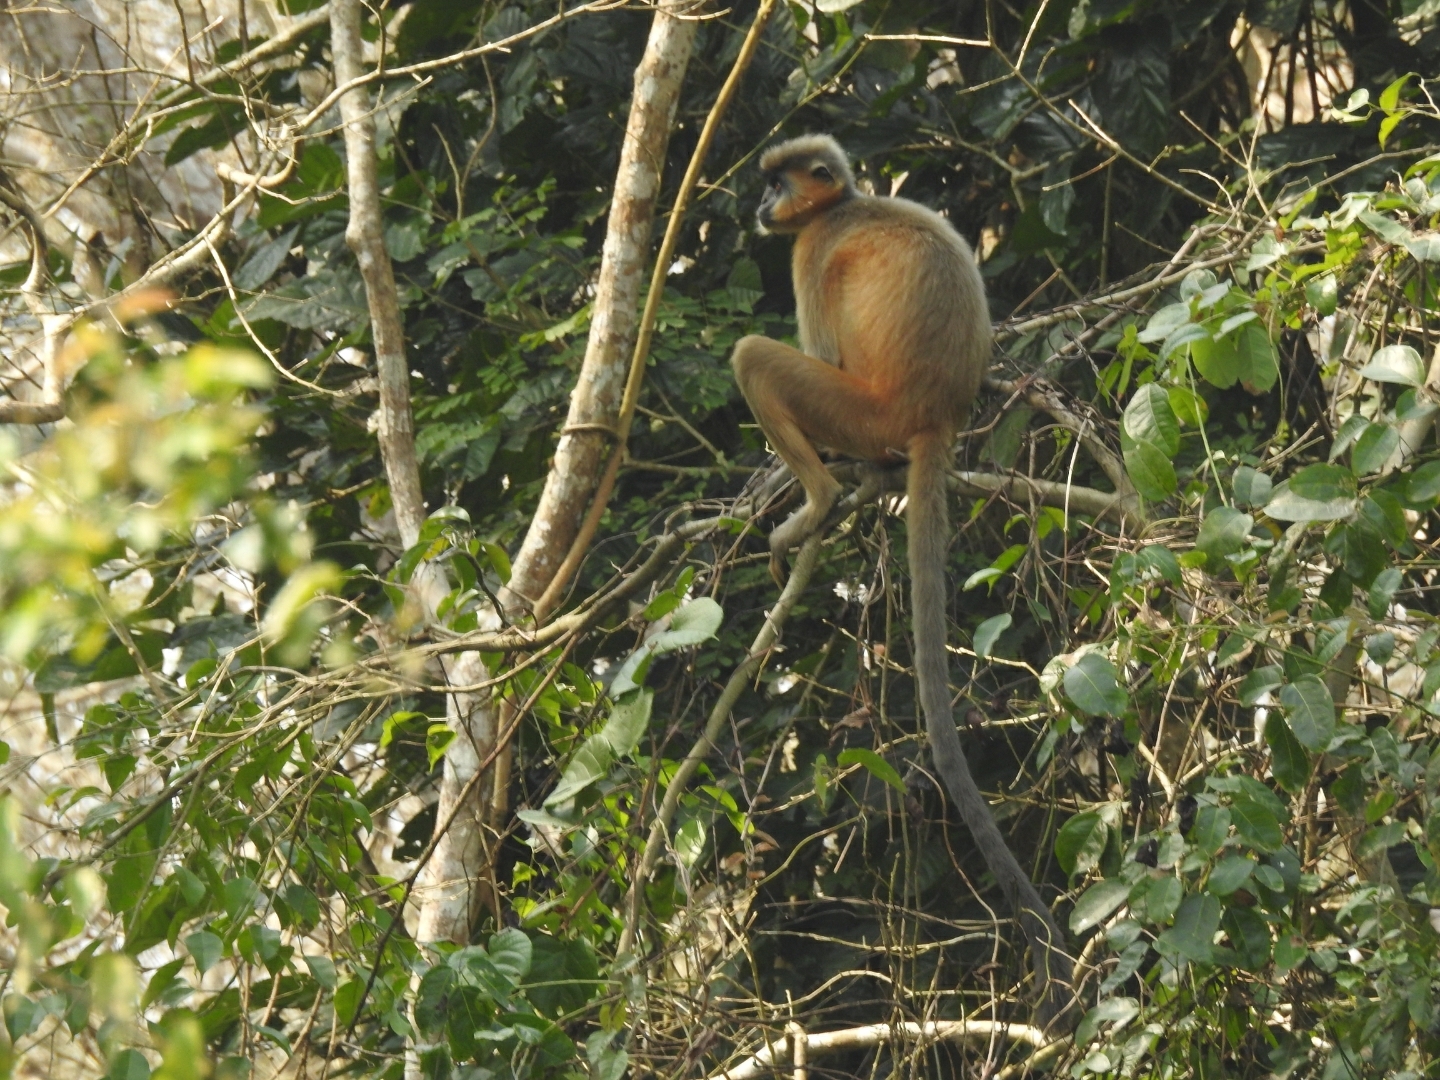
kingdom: Animalia
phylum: Chordata
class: Mammalia
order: Primates
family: Cercopithecidae
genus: Trachypithecus
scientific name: Trachypithecus pileatus
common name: Capped langur
